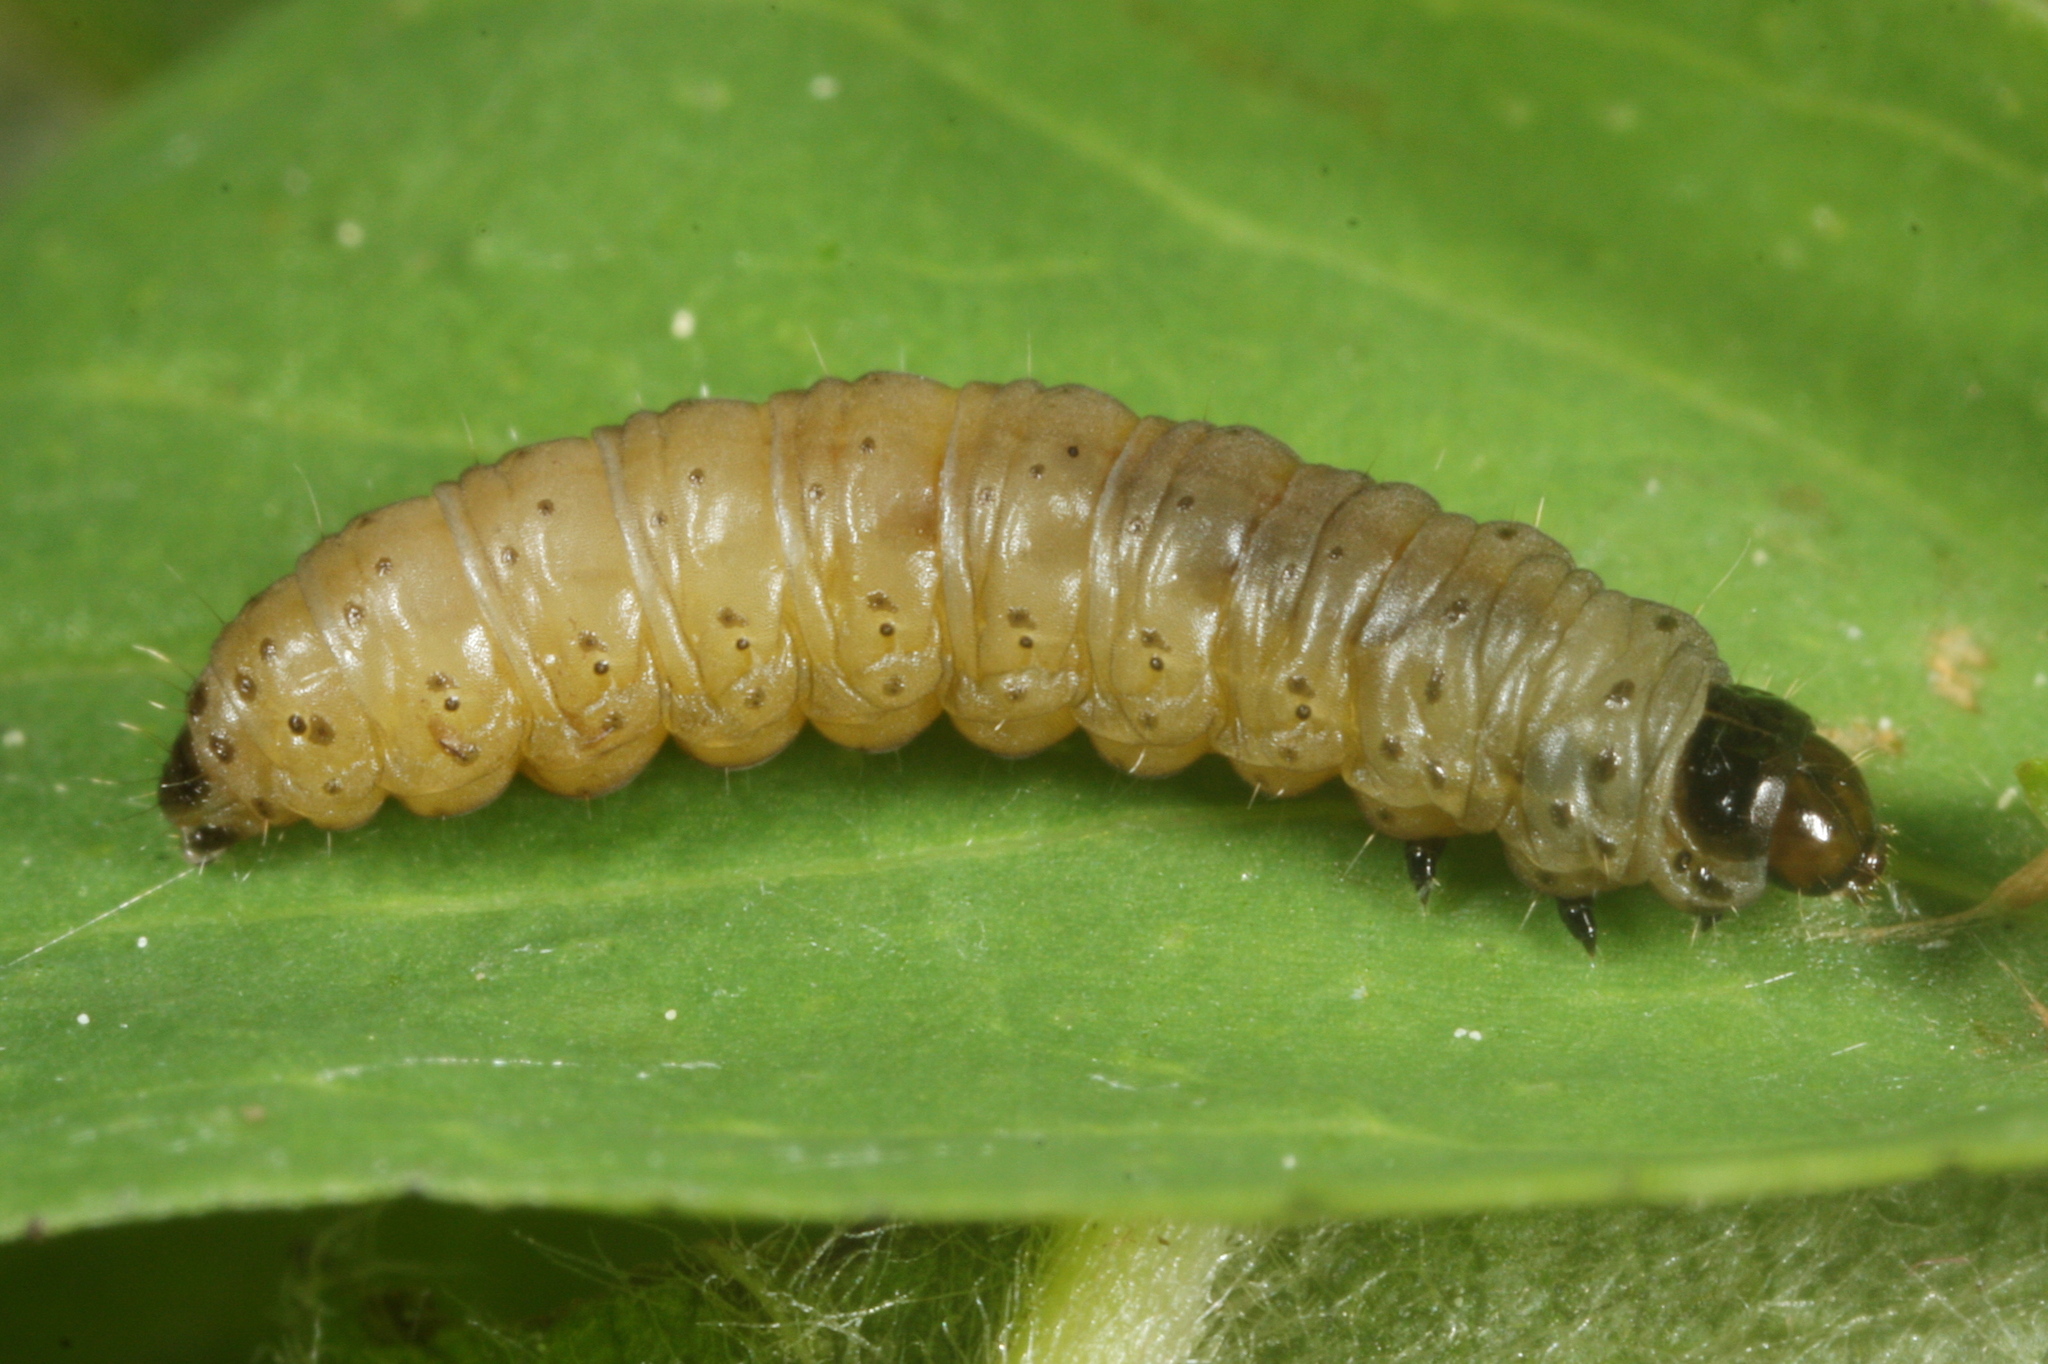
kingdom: Animalia
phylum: Arthropoda
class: Insecta
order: Lepidoptera
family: Tortricidae
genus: Lathronympha
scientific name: Lathronympha strigana
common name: Red piercer
